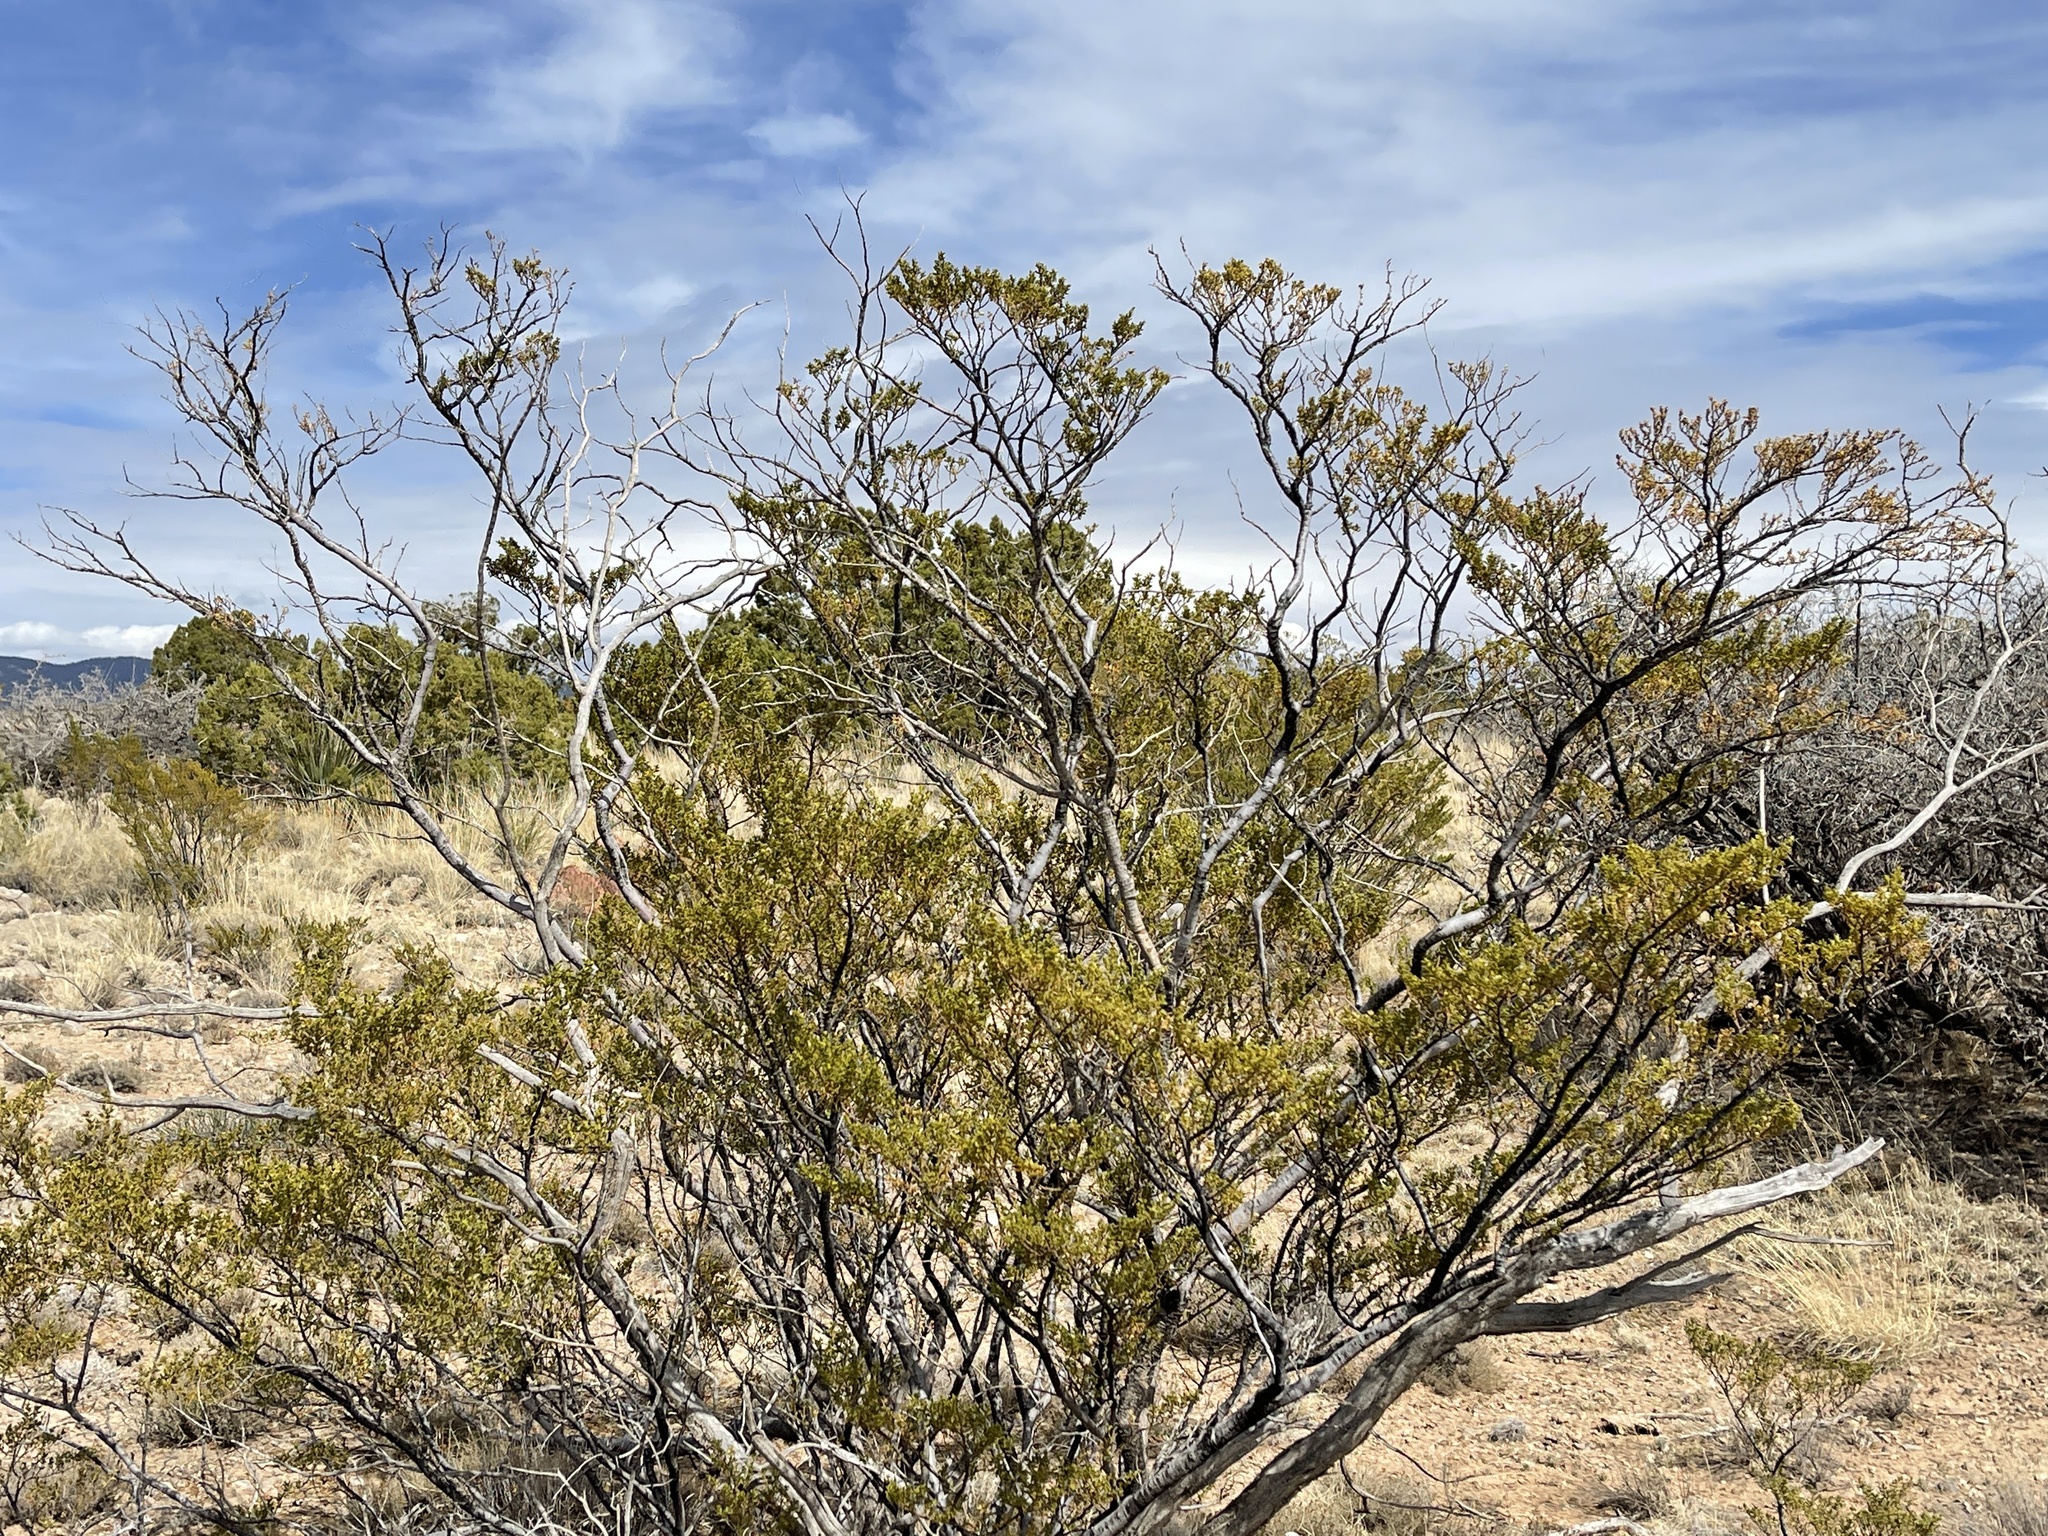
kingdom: Plantae
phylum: Tracheophyta
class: Magnoliopsida
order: Zygophyllales
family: Zygophyllaceae
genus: Larrea
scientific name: Larrea tridentata
